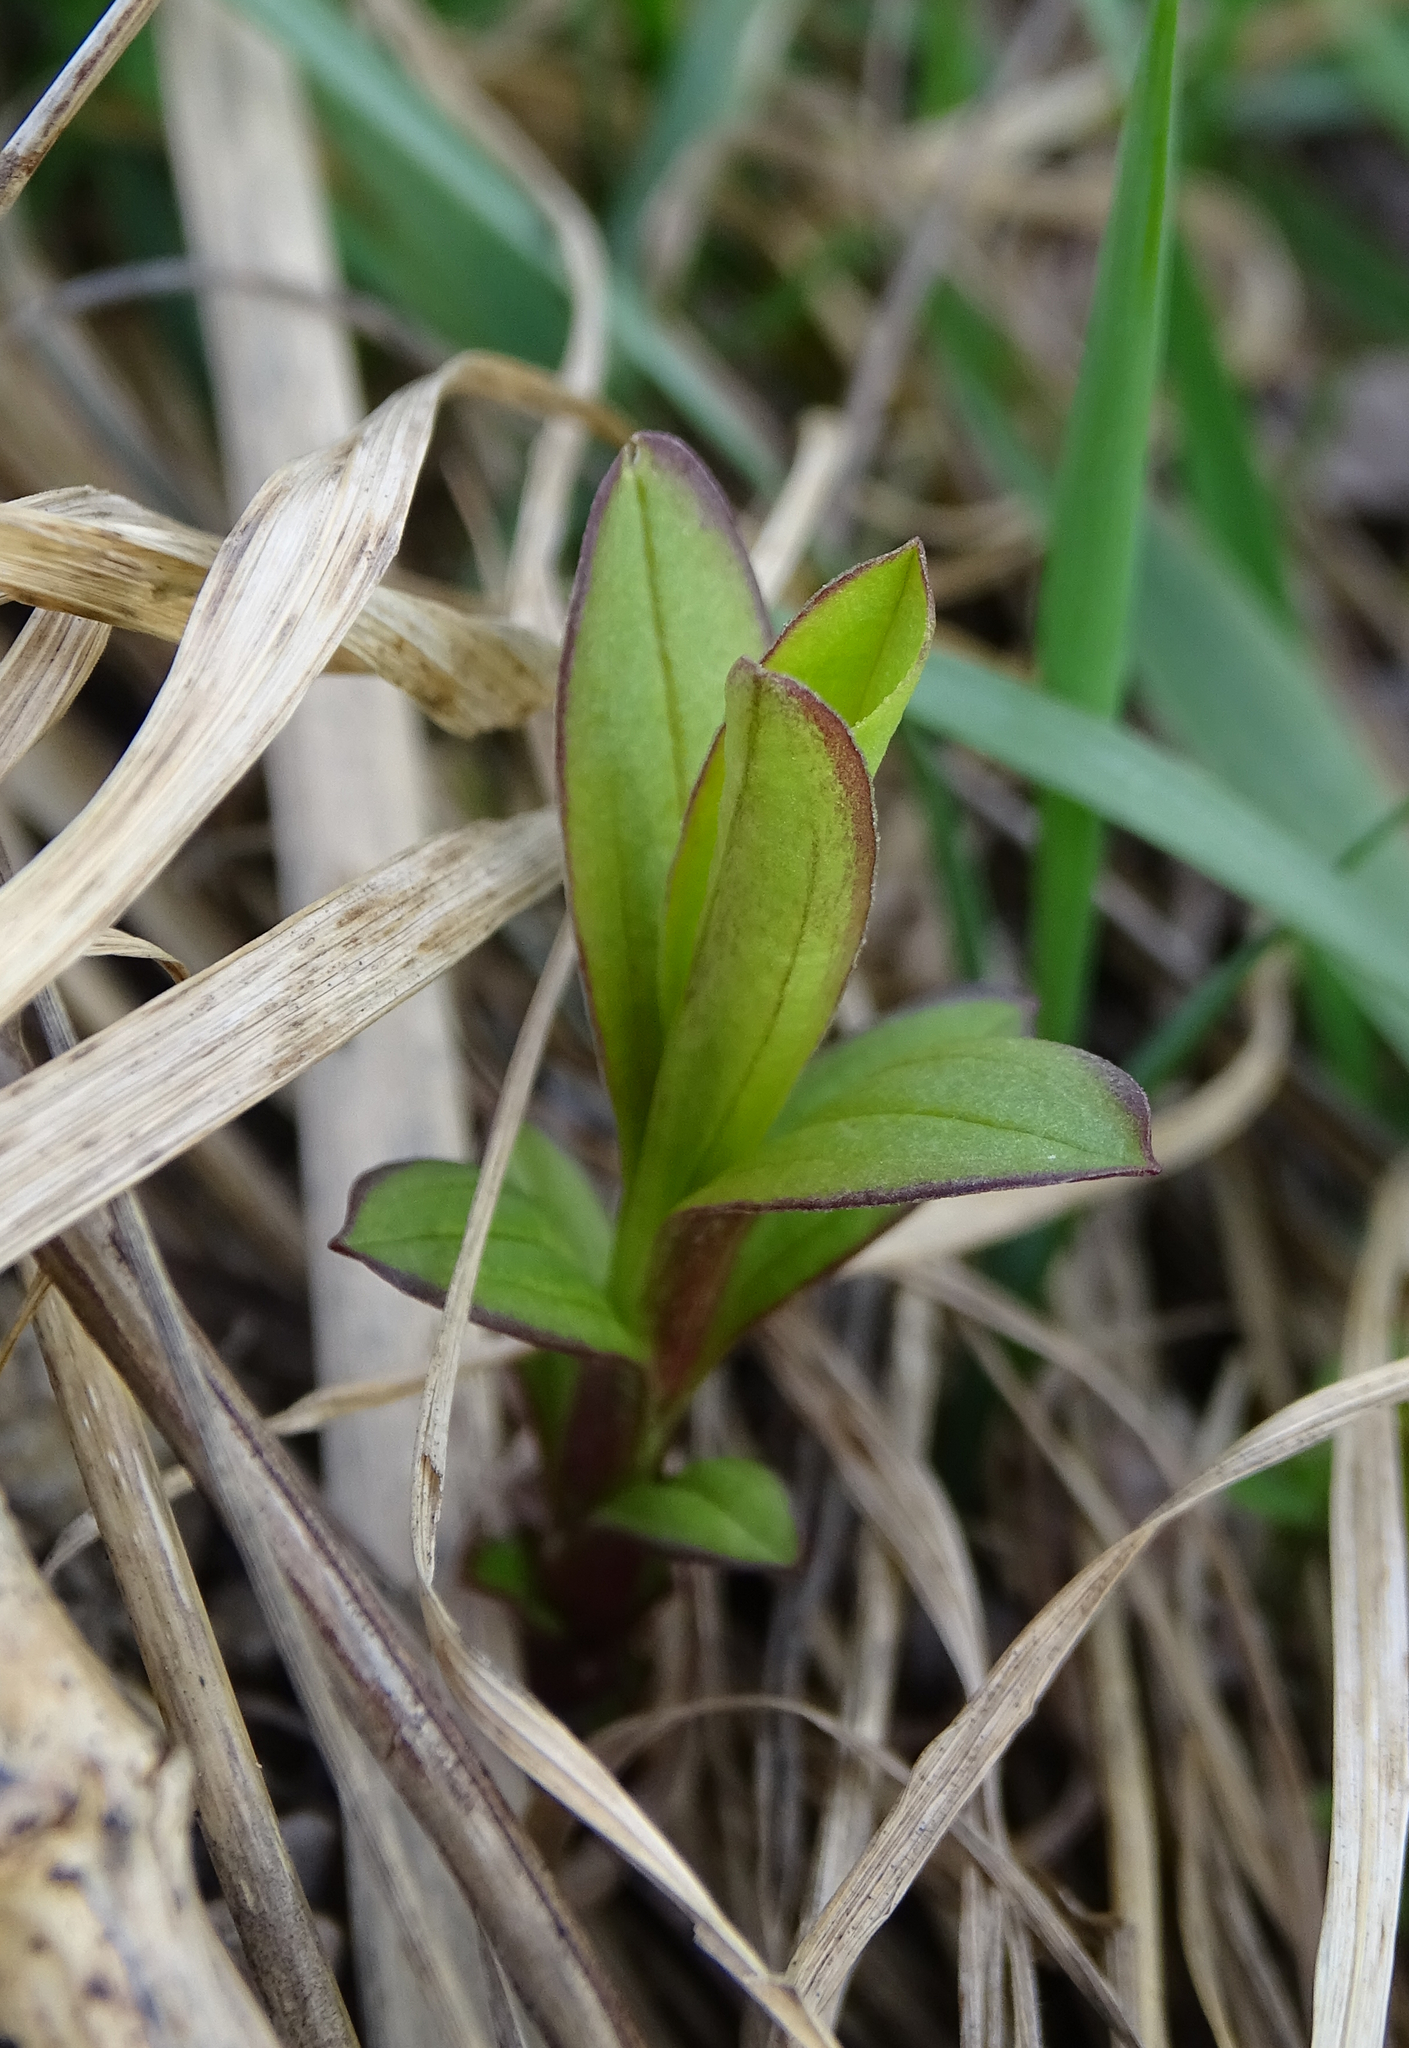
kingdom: Plantae
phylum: Tracheophyta
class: Magnoliopsida
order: Asterales
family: Asteraceae
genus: Pentanema
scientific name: Pentanema salicinum
